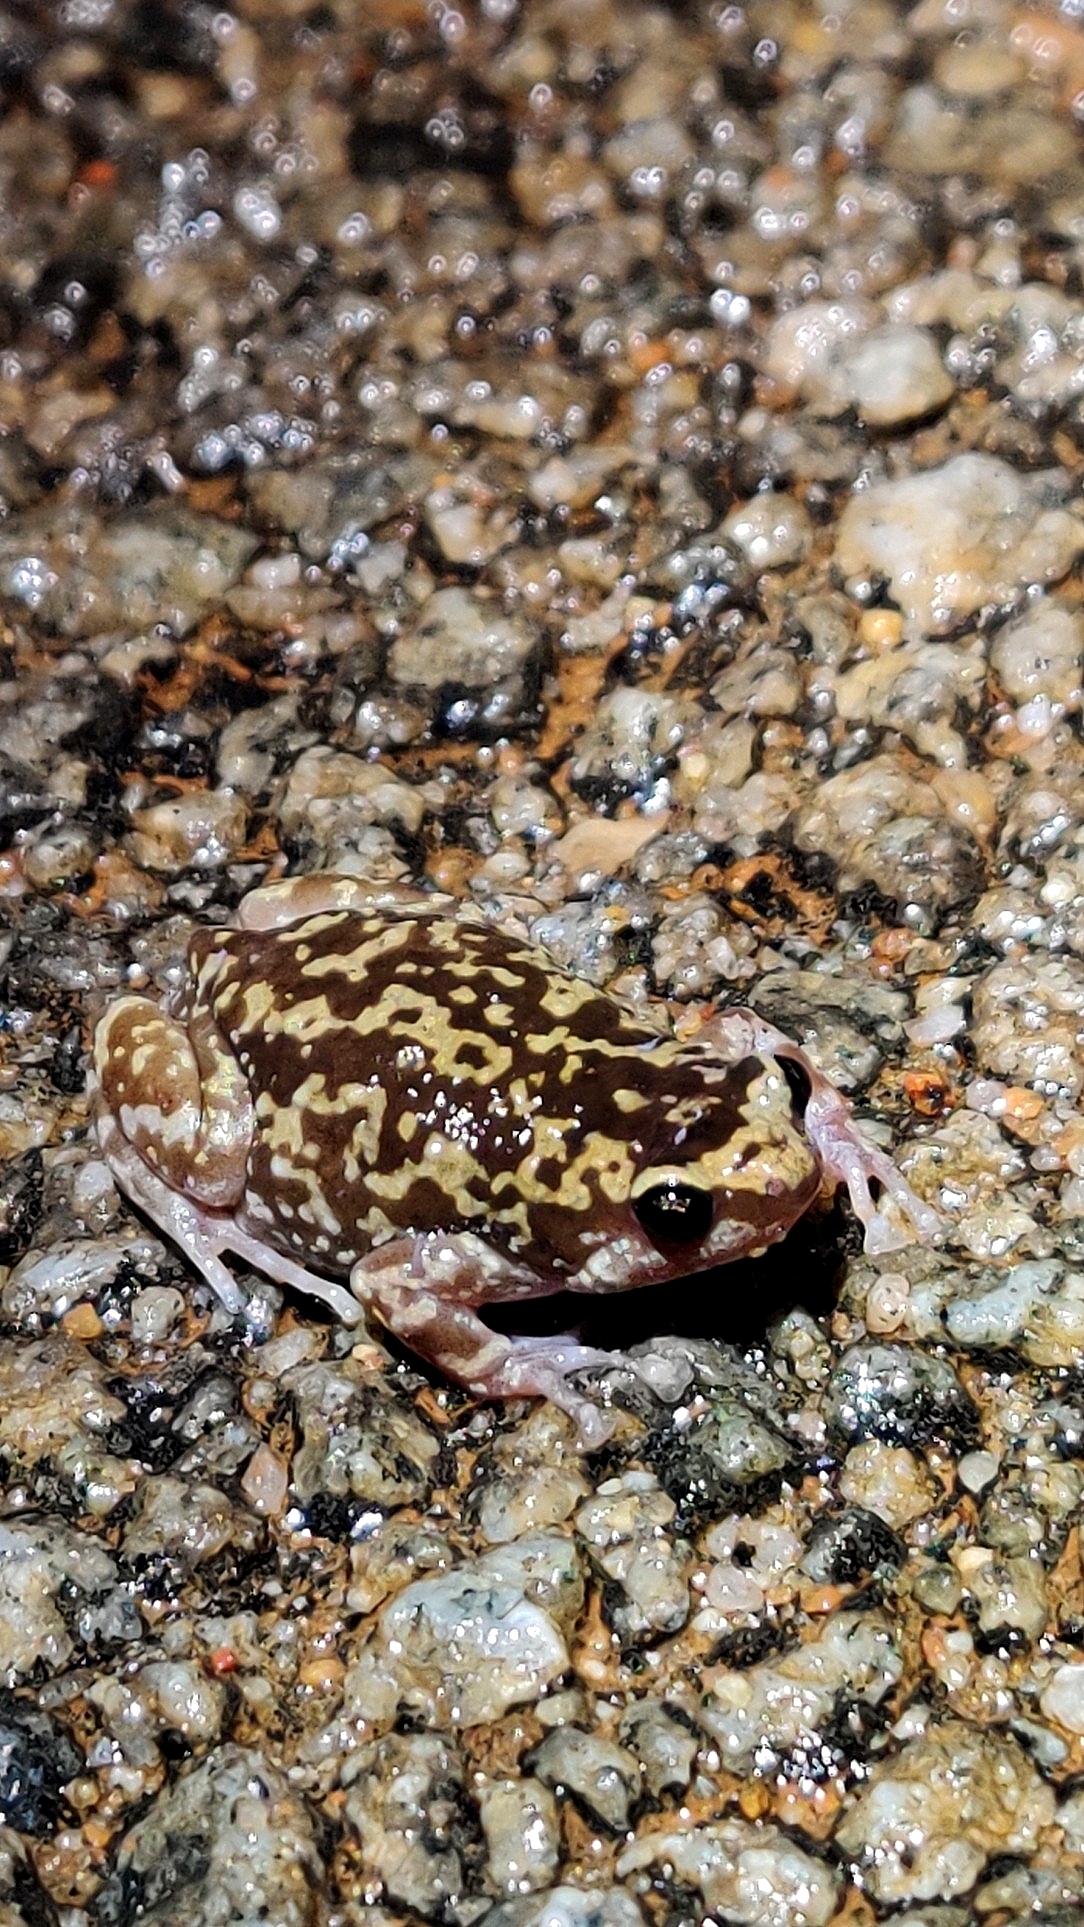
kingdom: Animalia
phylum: Chordata
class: Amphibia
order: Anura
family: Microhylidae
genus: Uperodon
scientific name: Uperodon variegatus
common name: Eluru dot frog
